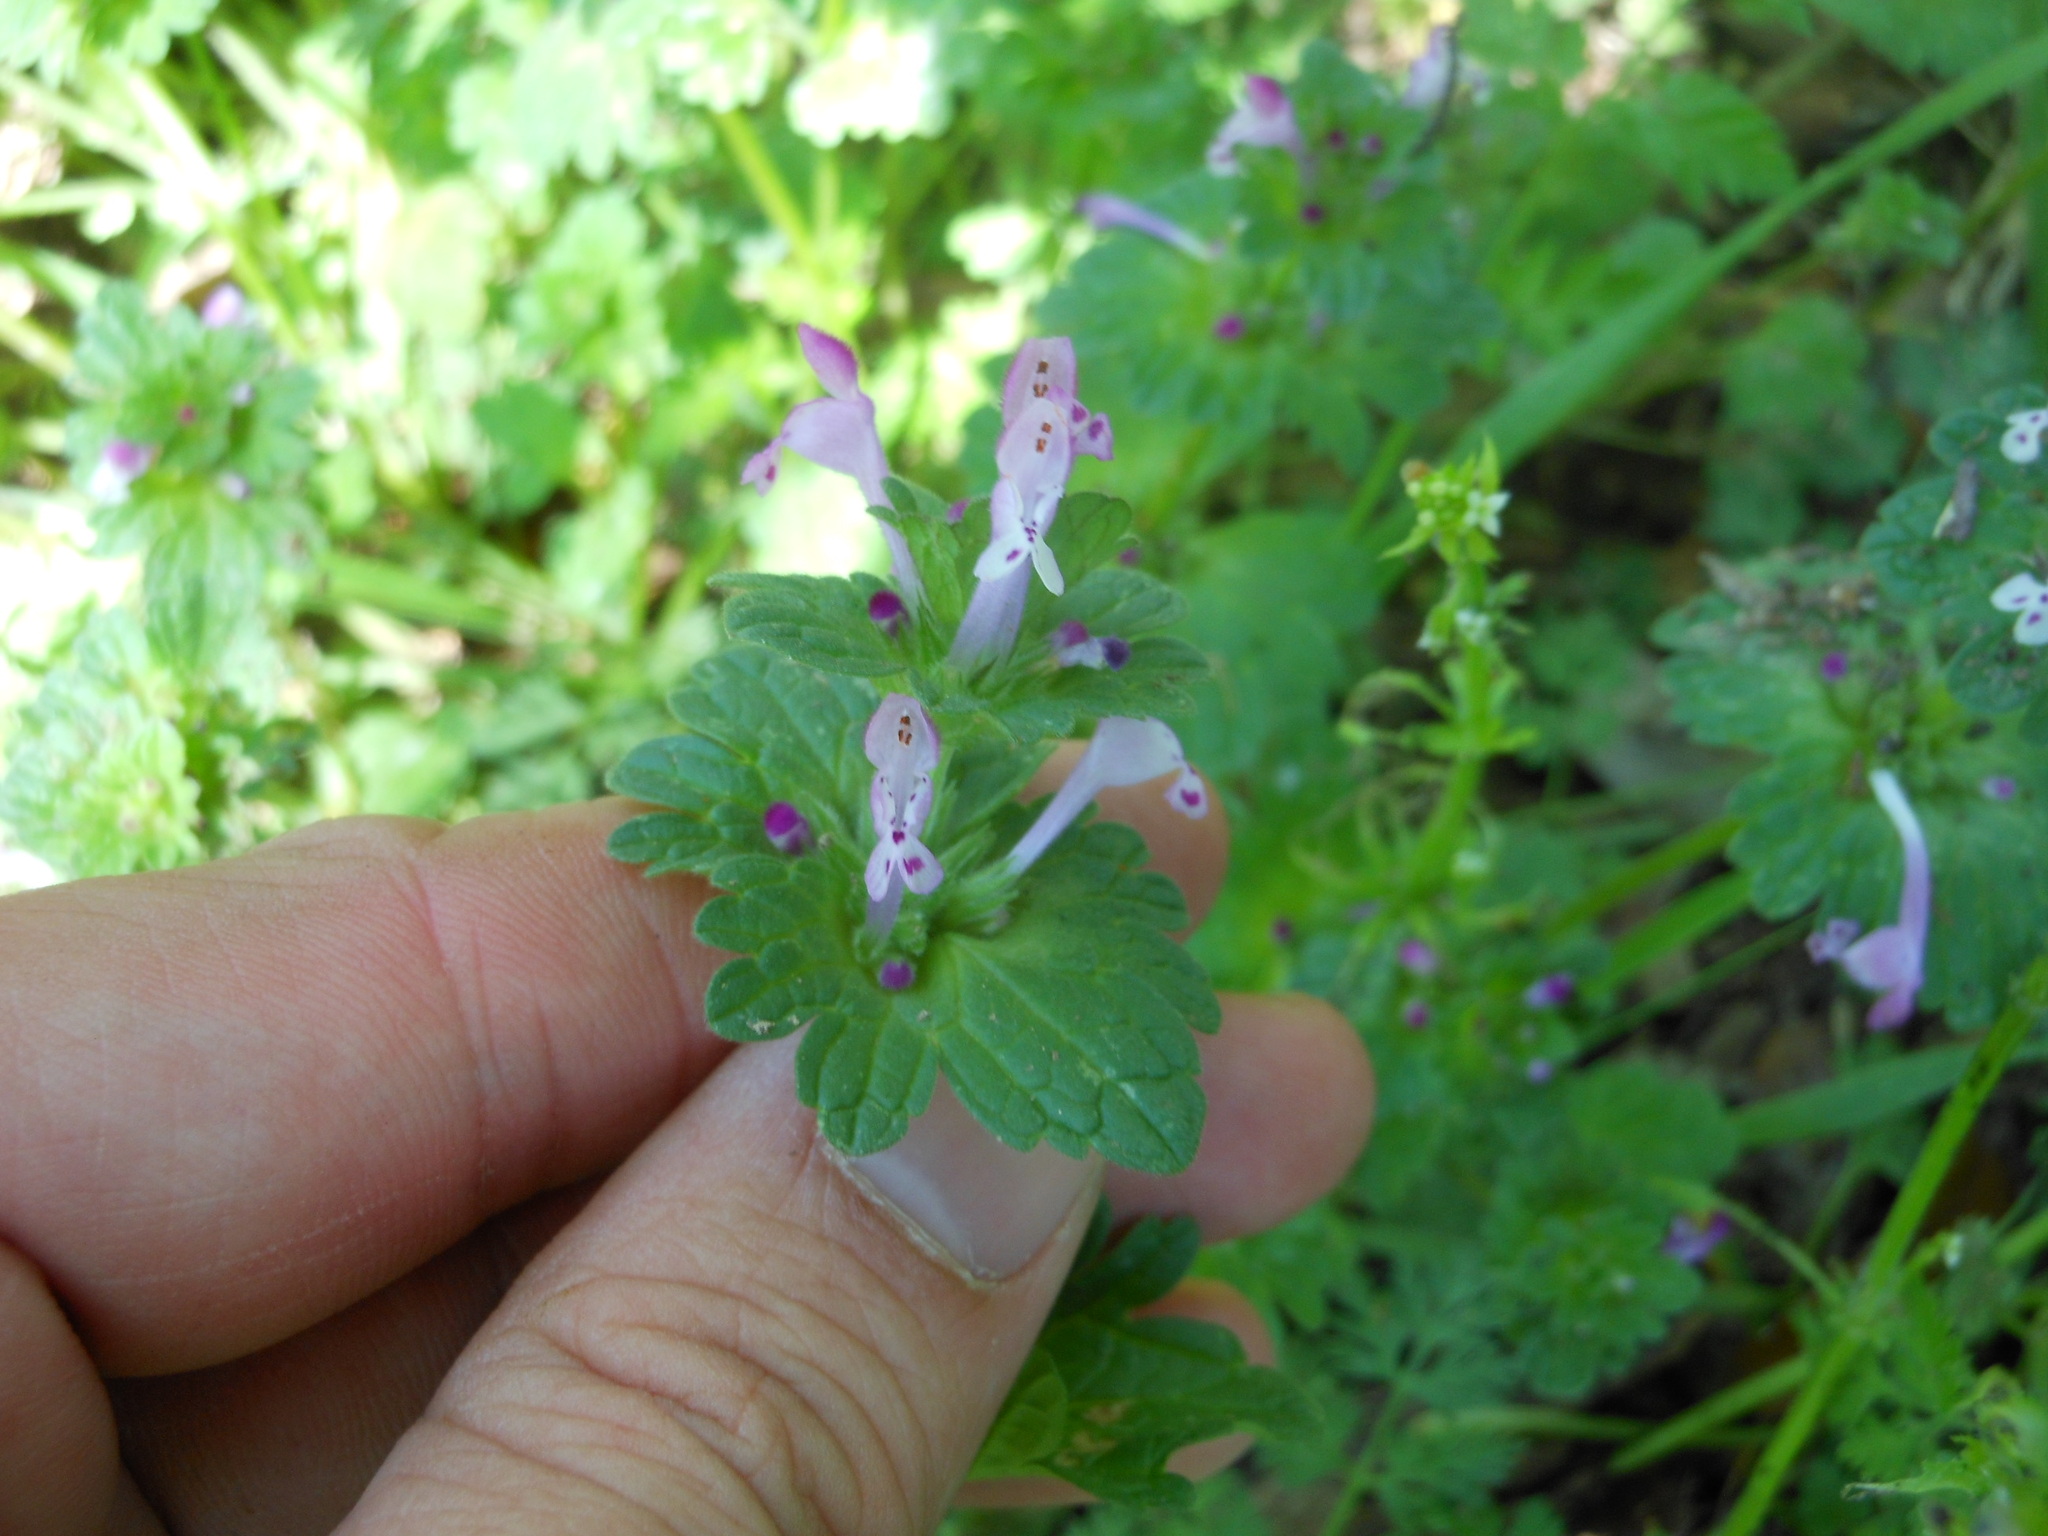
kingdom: Plantae
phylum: Tracheophyta
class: Magnoliopsida
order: Lamiales
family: Lamiaceae
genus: Lamium
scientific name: Lamium amplexicaule
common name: Henbit dead-nettle
